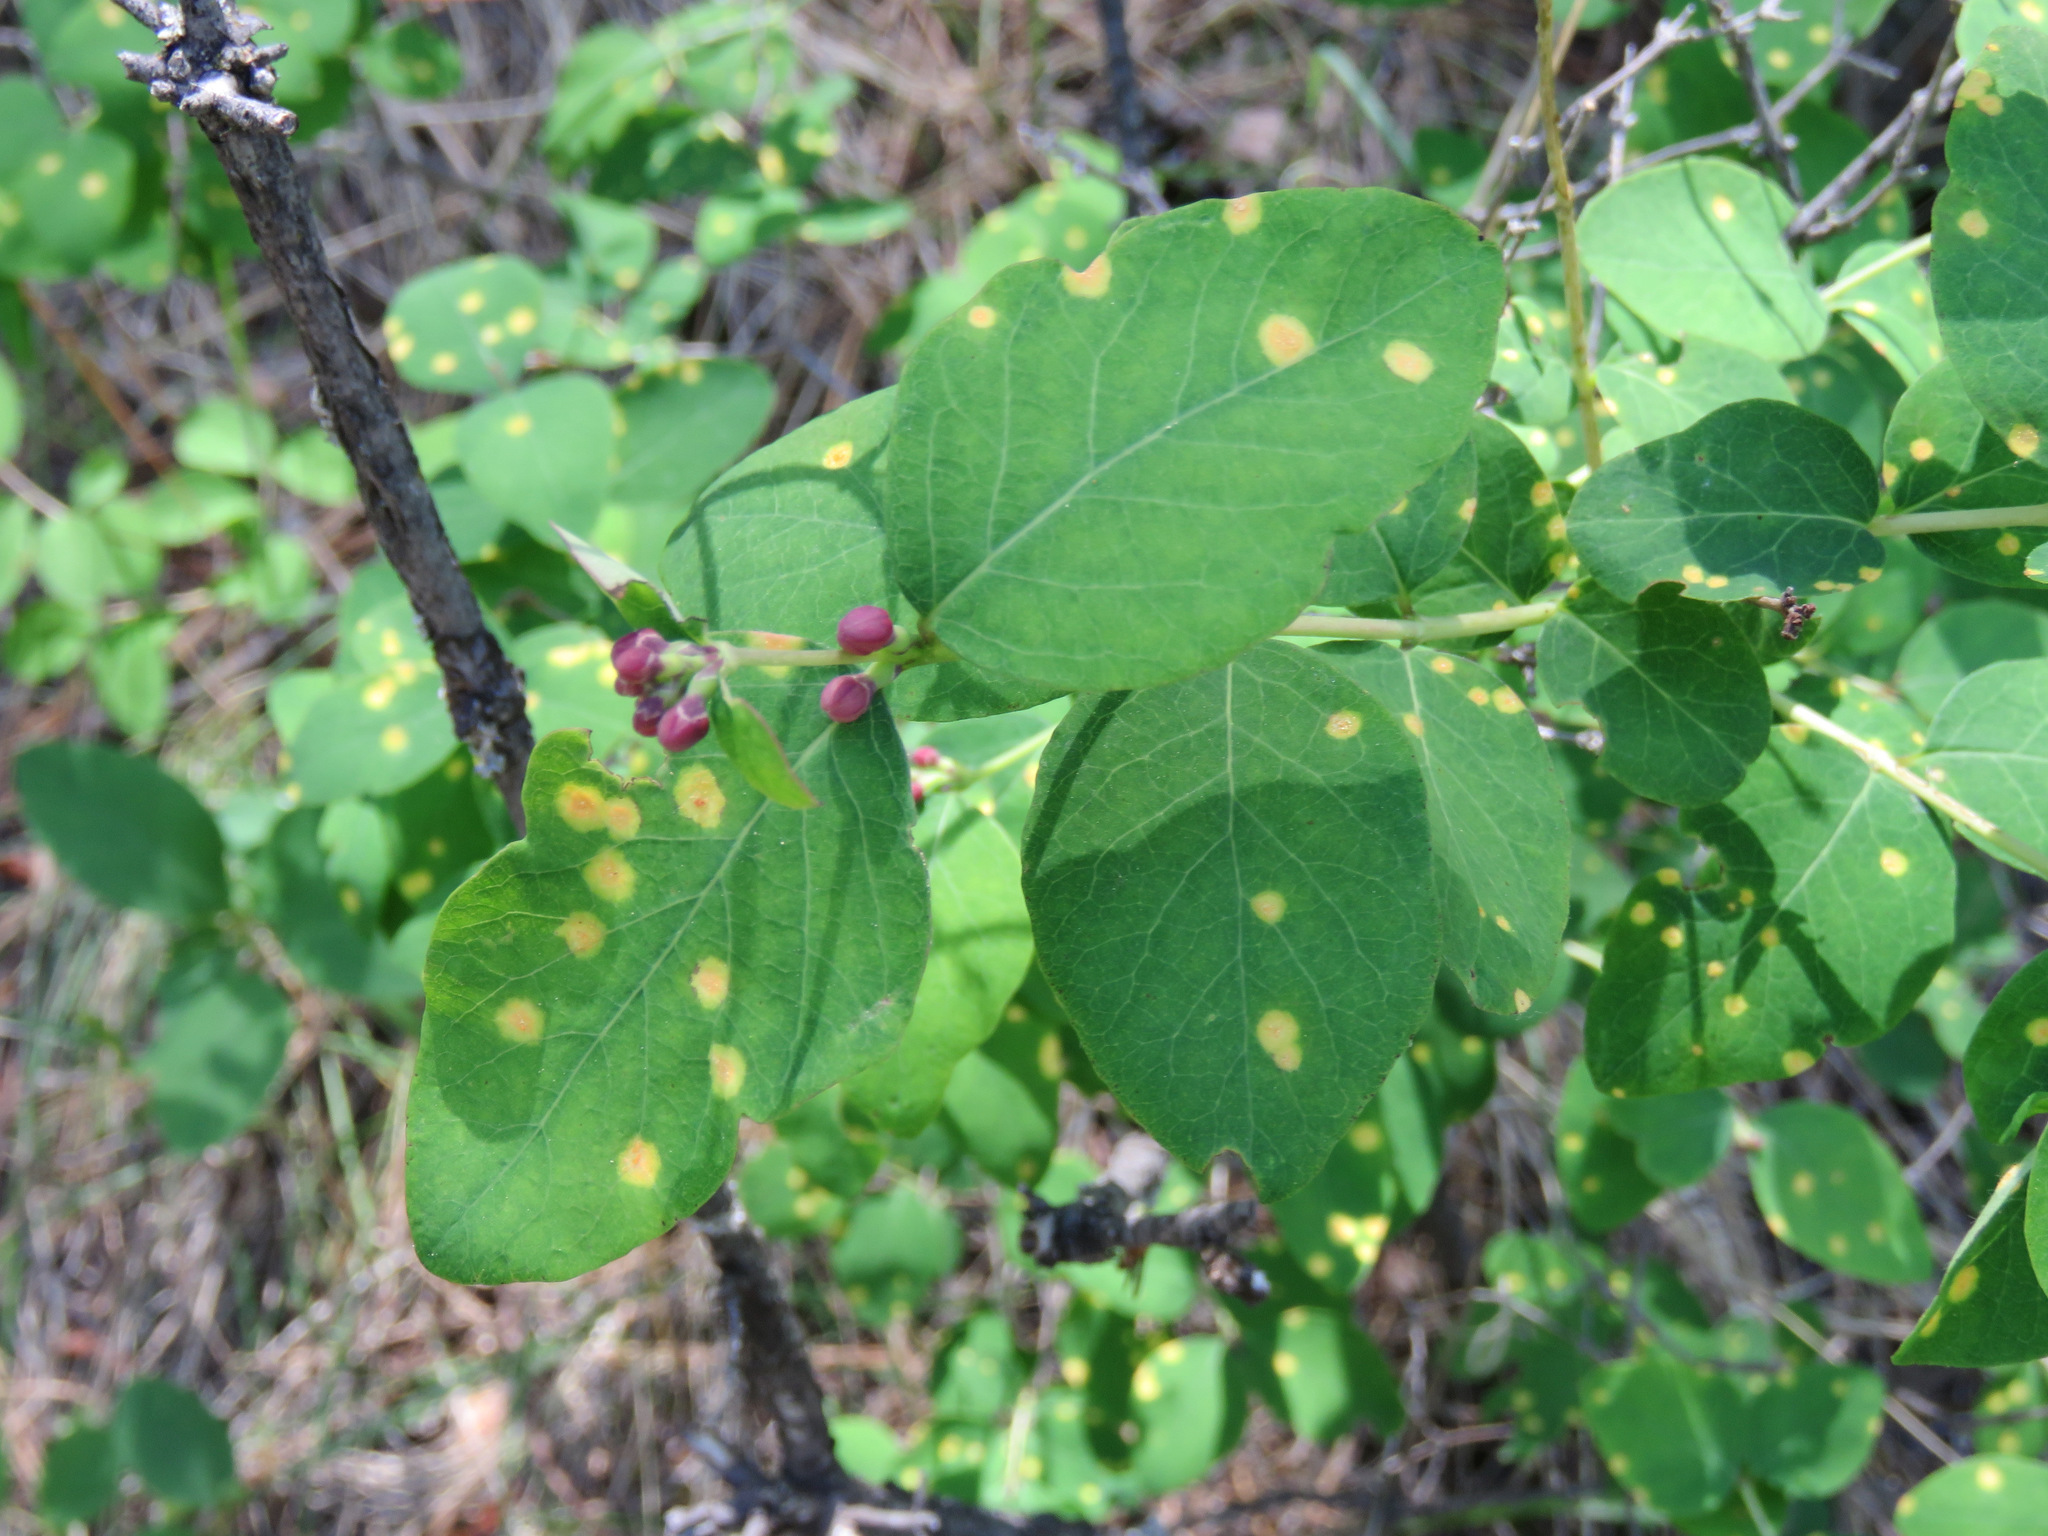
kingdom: Plantae
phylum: Tracheophyta
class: Magnoliopsida
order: Dipsacales
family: Caprifoliaceae
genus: Symphoricarpos
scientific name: Symphoricarpos albus
